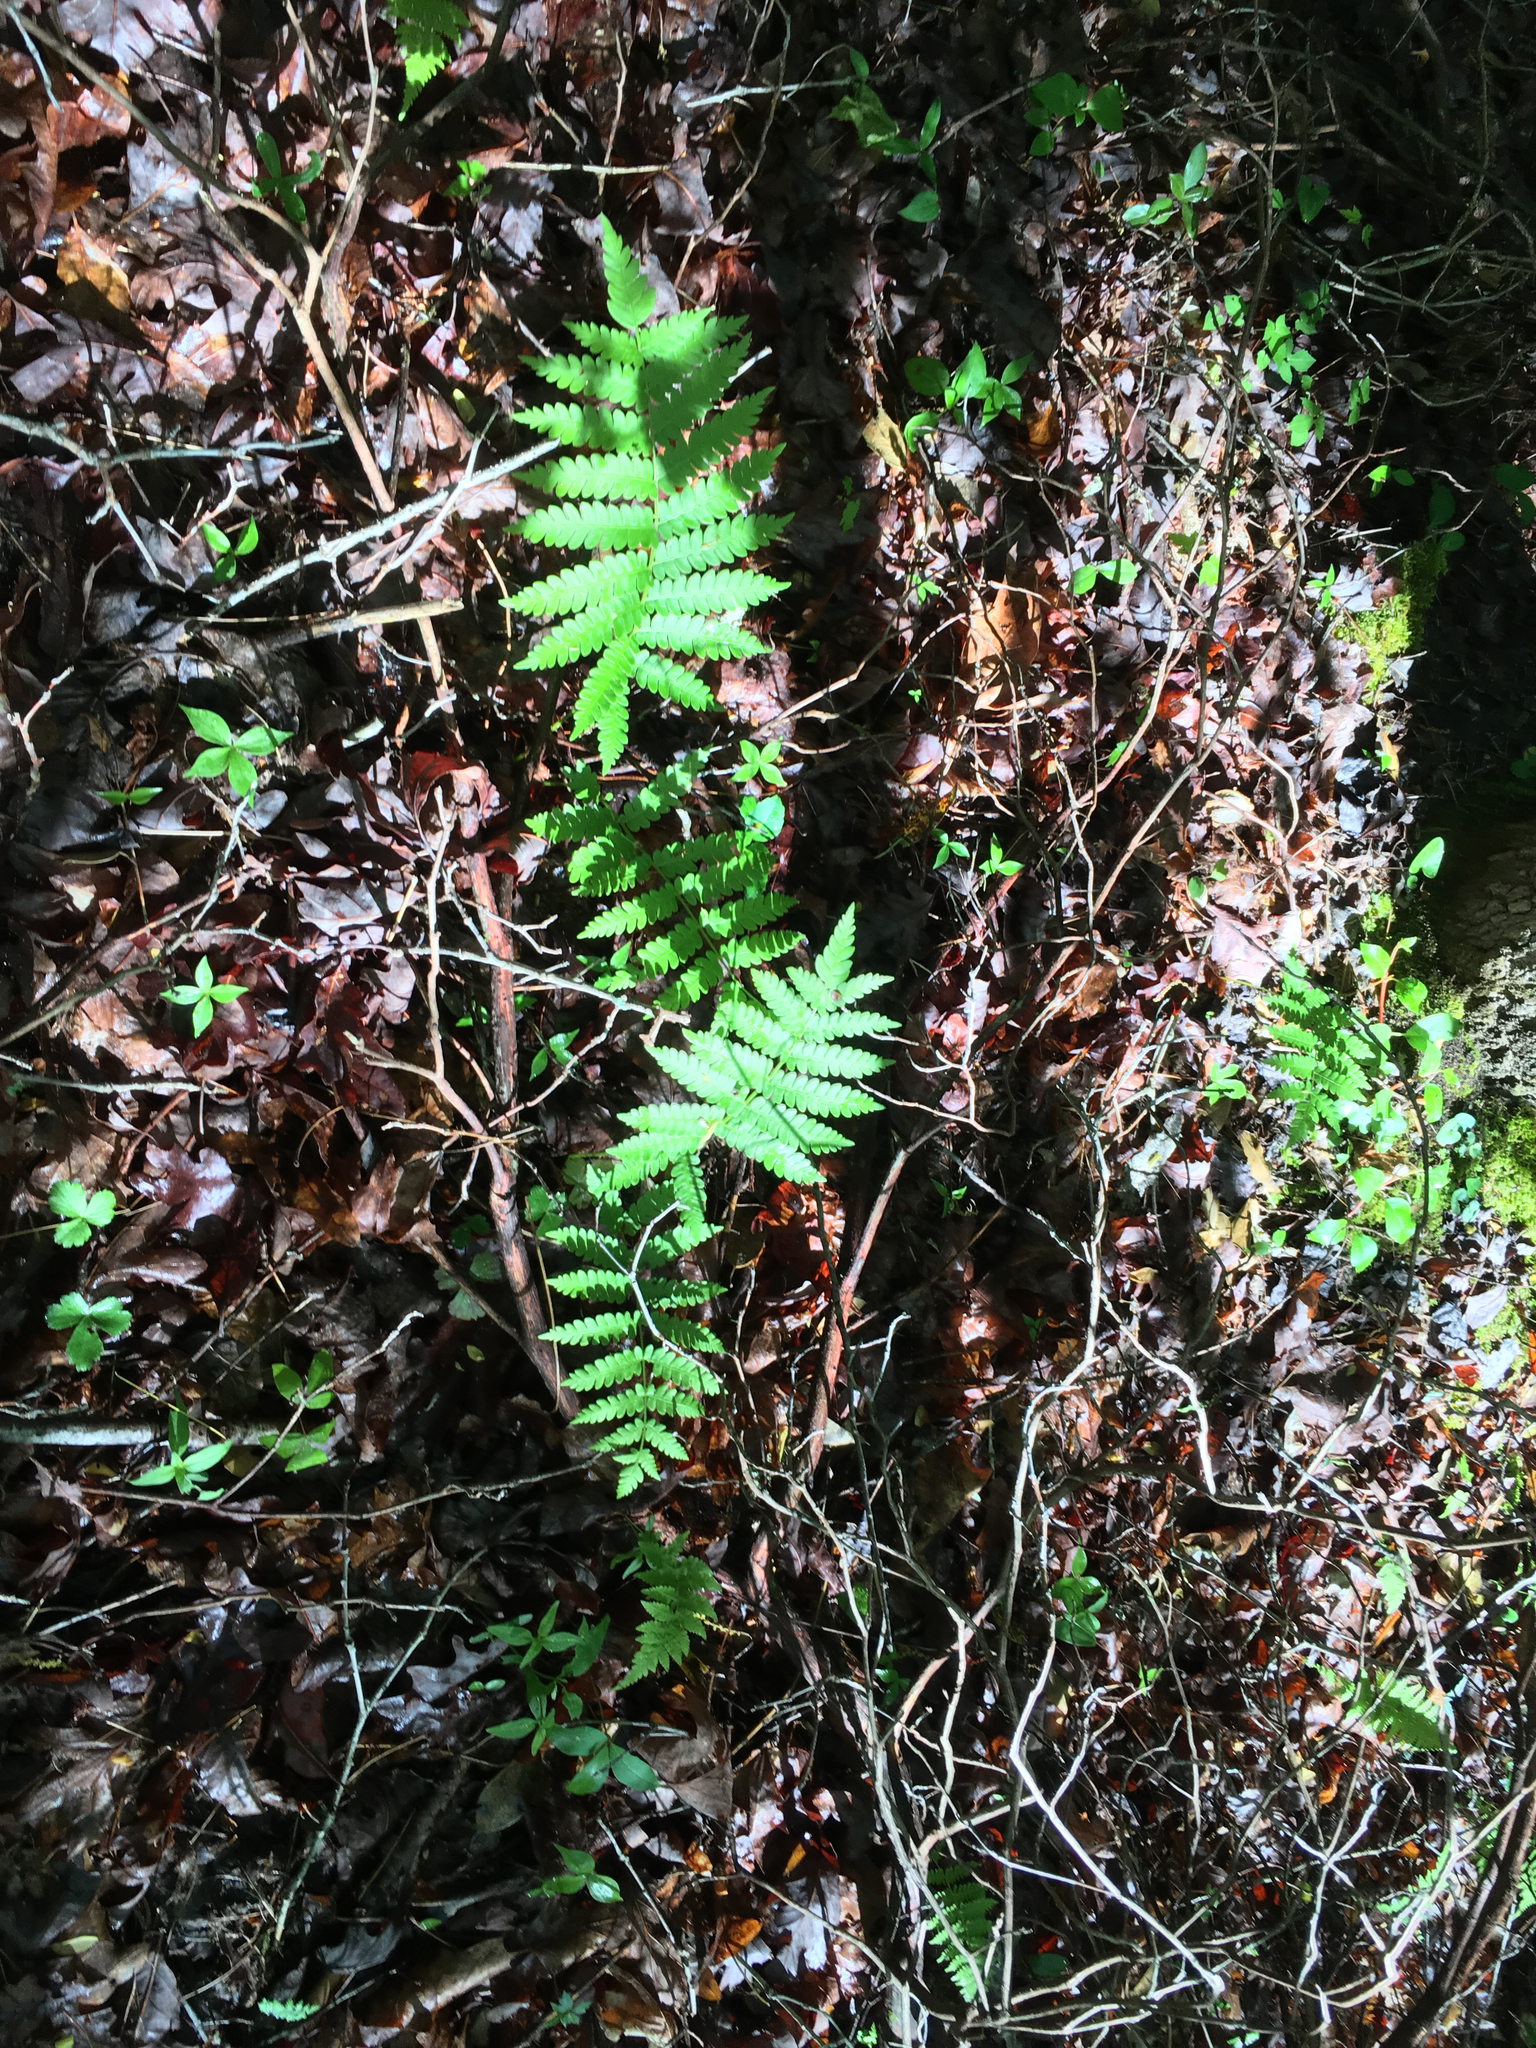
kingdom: Plantae
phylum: Tracheophyta
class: Polypodiopsida
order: Osmundales
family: Osmundaceae
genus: Osmundastrum
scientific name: Osmundastrum cinnamomeum
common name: Cinnamon fern
